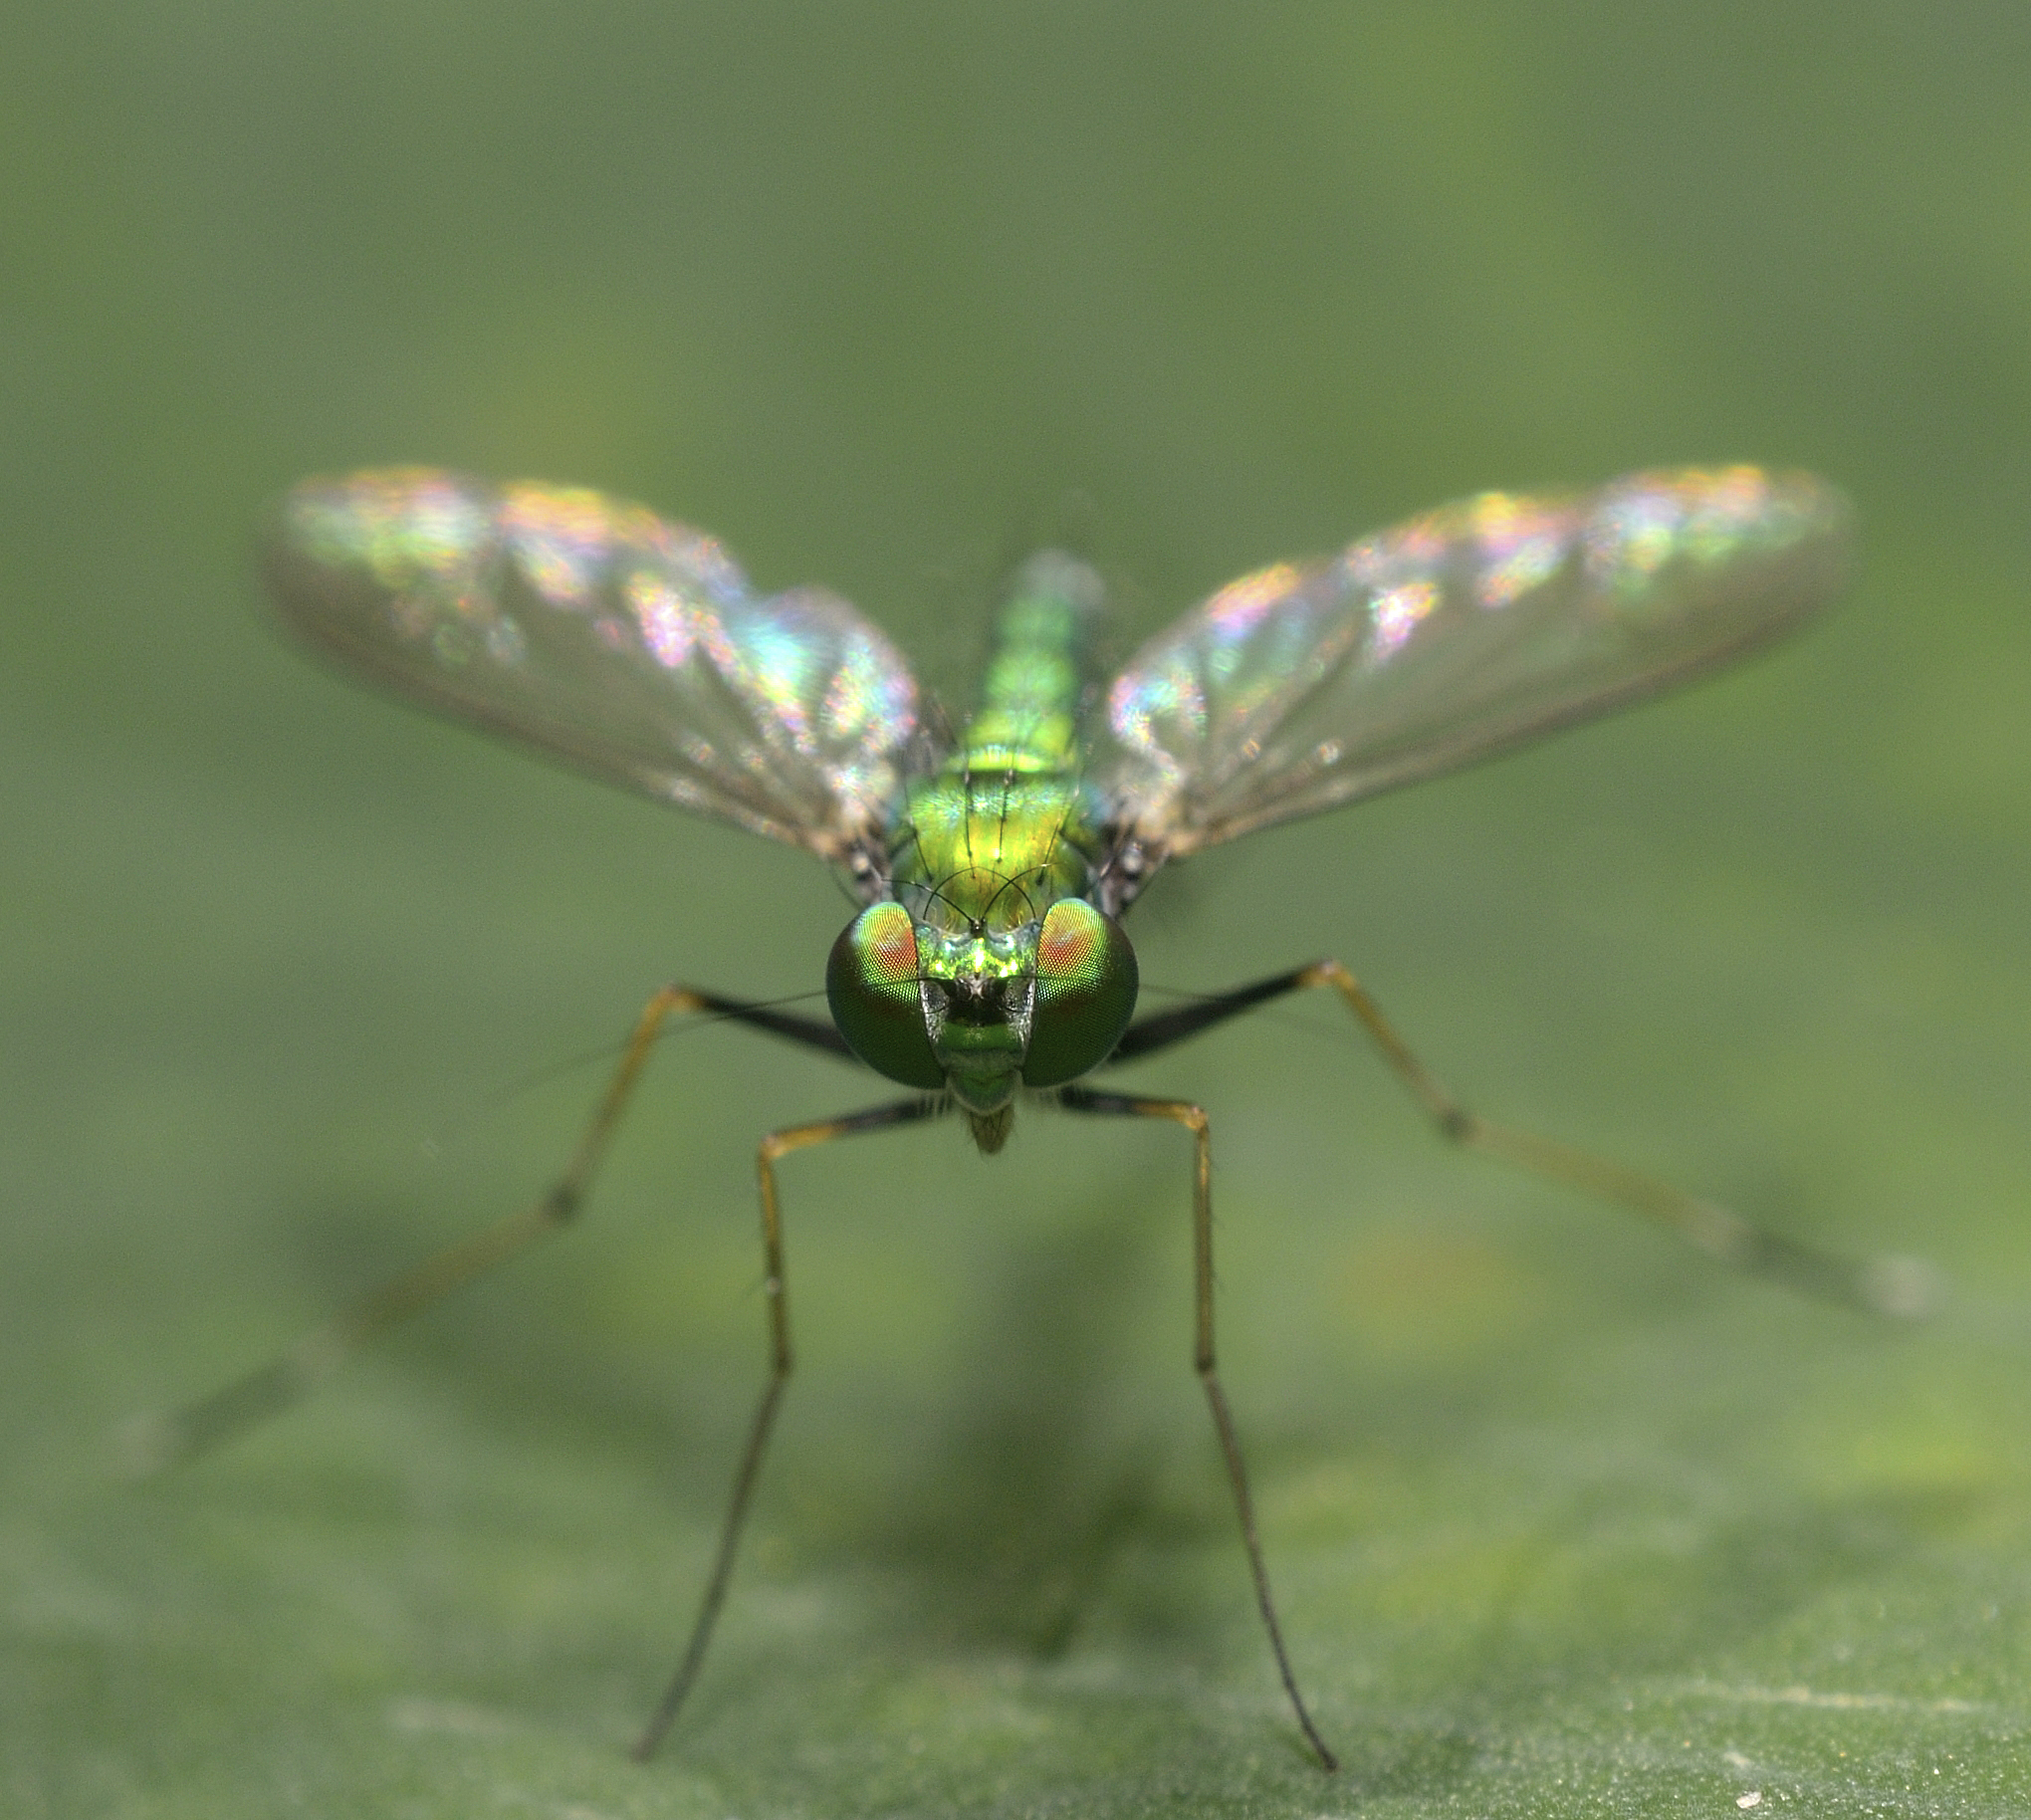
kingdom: Animalia
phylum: Arthropoda
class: Insecta
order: Diptera
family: Dolichopodidae
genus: Chrysosoma
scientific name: Chrysosoma leucopogon
